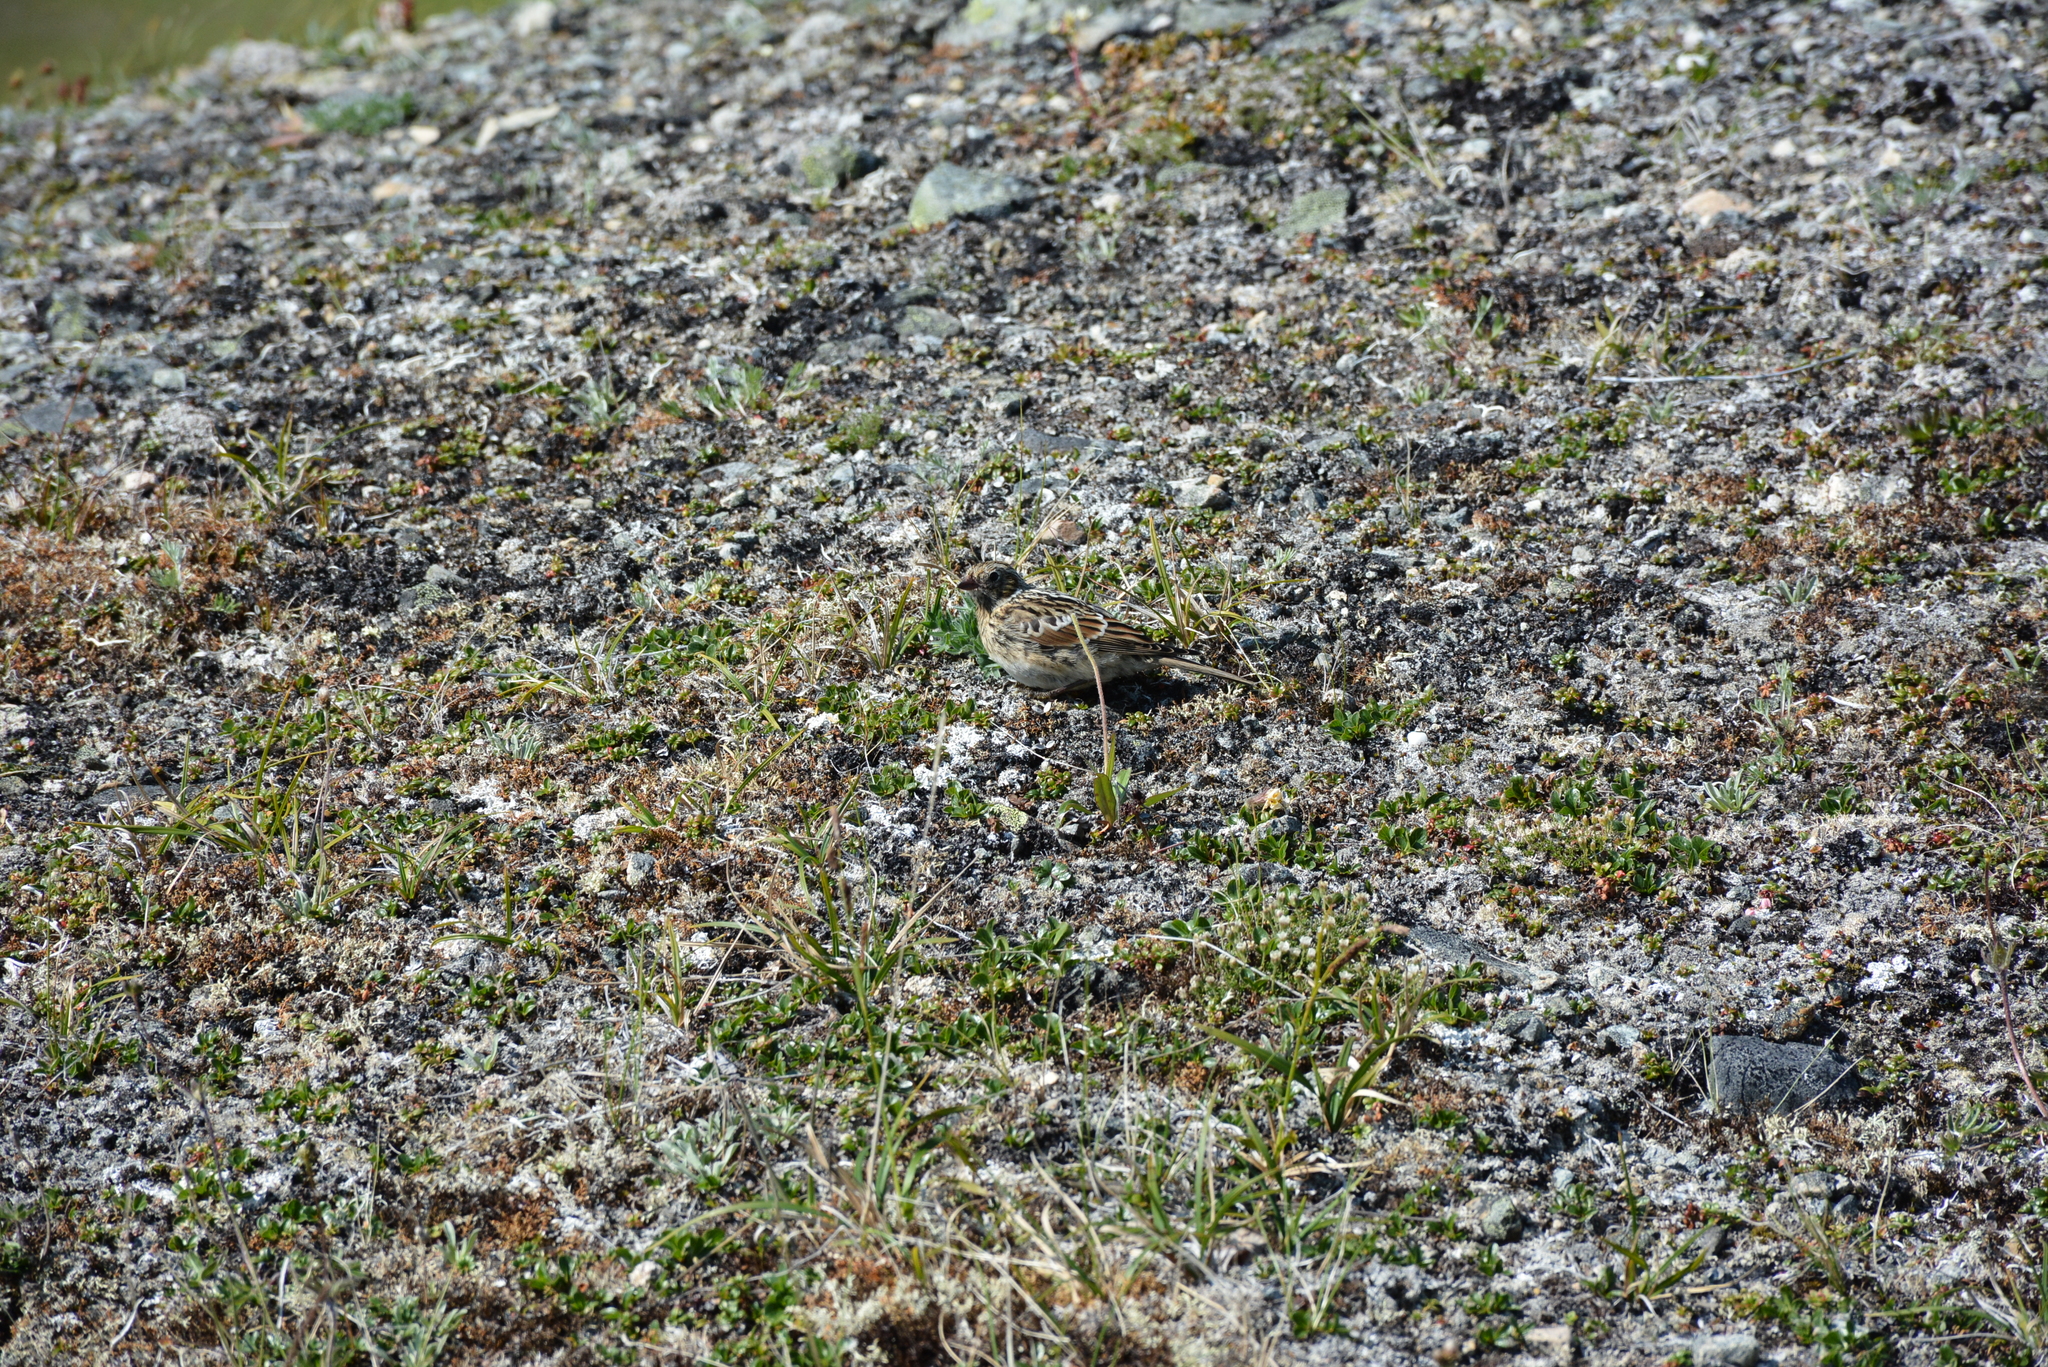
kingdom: Animalia
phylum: Chordata
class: Aves
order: Passeriformes
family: Calcariidae
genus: Calcarius
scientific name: Calcarius lapponicus
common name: Lapland longspur
